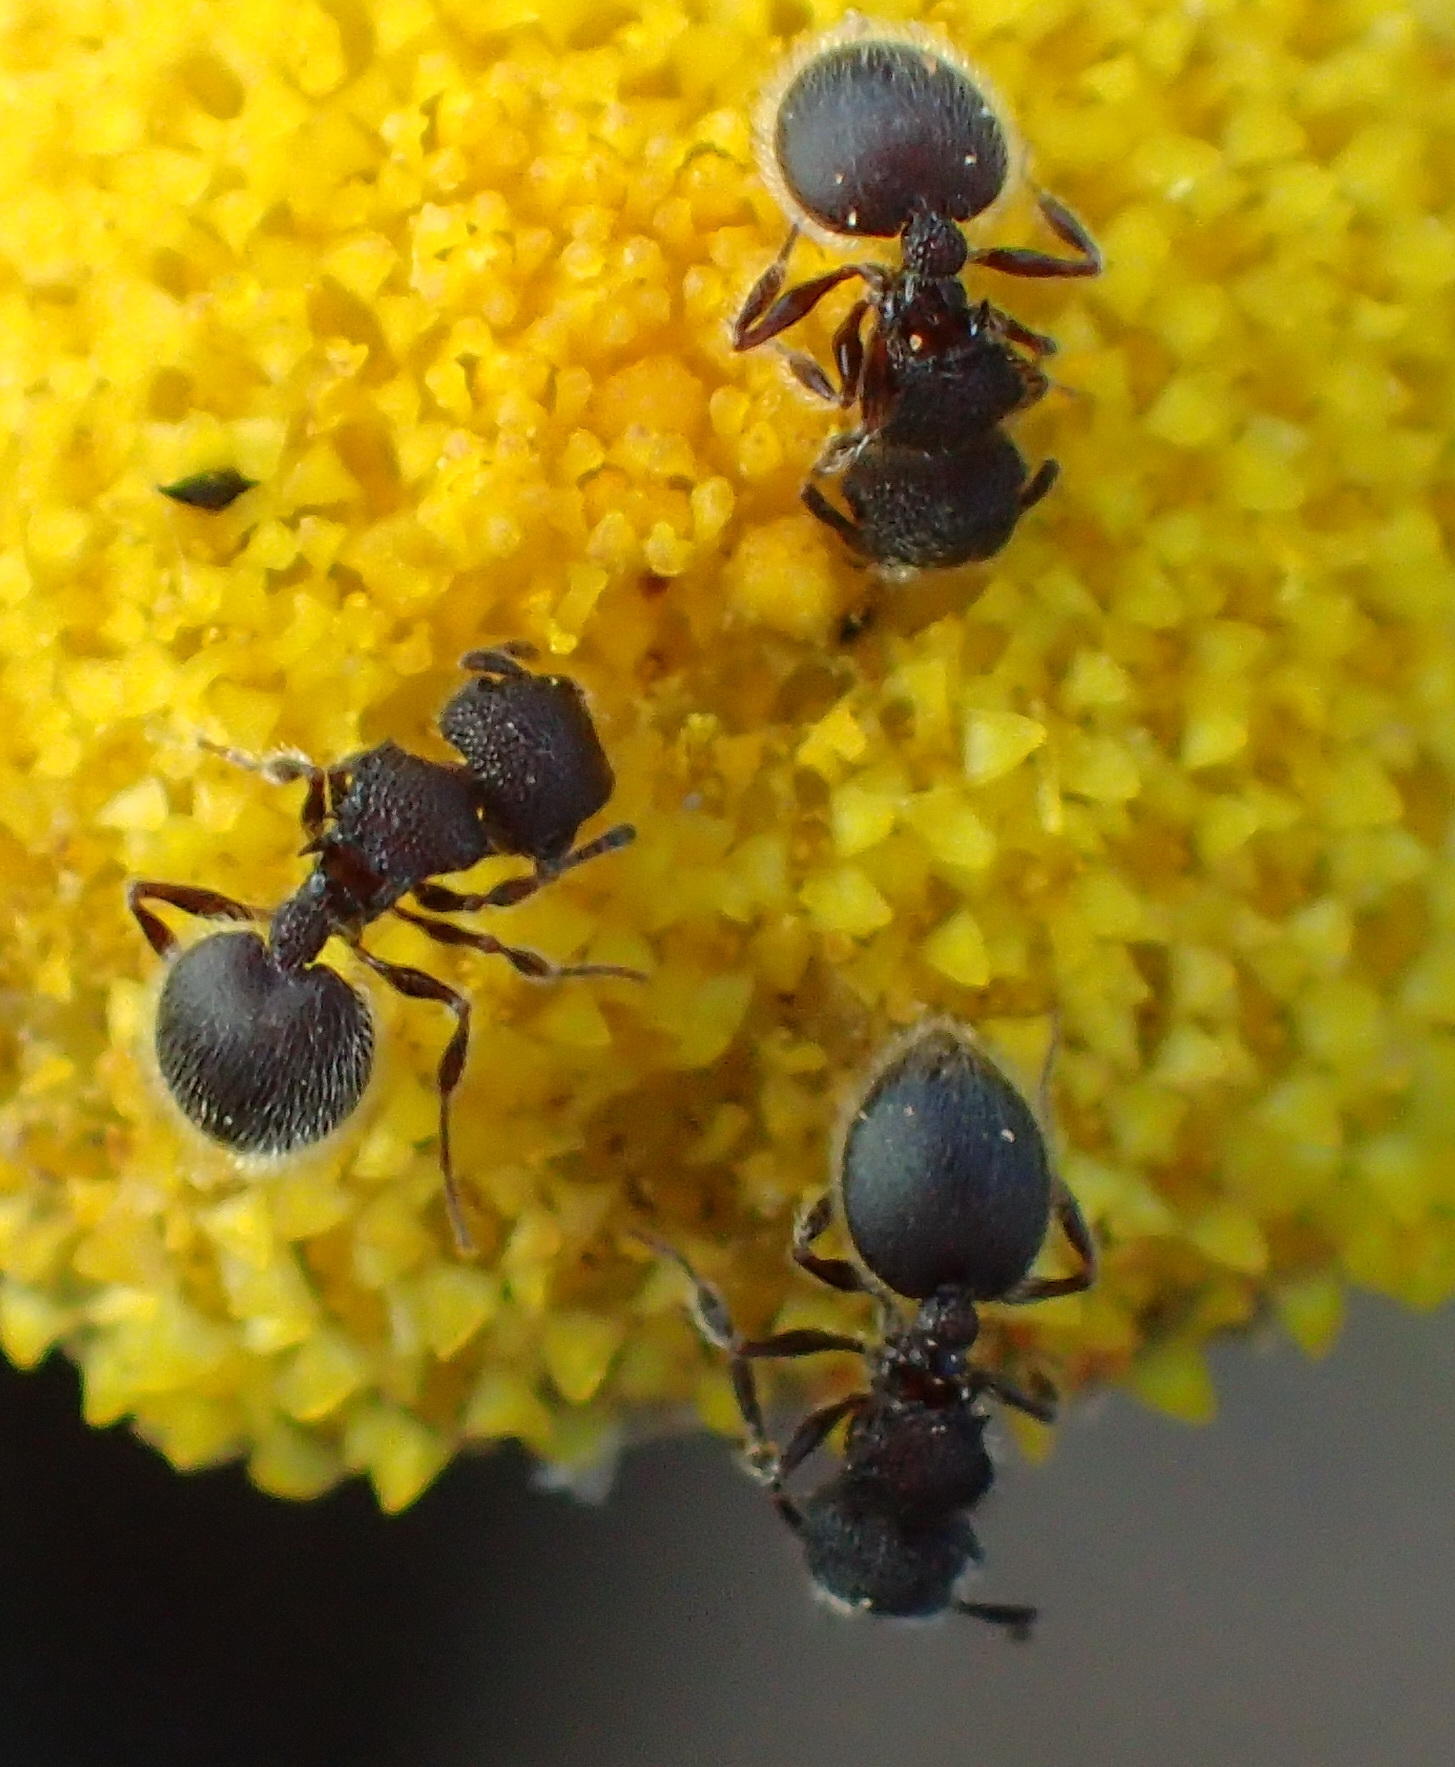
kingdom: Animalia
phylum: Arthropoda
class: Insecta
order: Hymenoptera
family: Formicidae
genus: Meranoplus
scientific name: Meranoplus peringueyi
